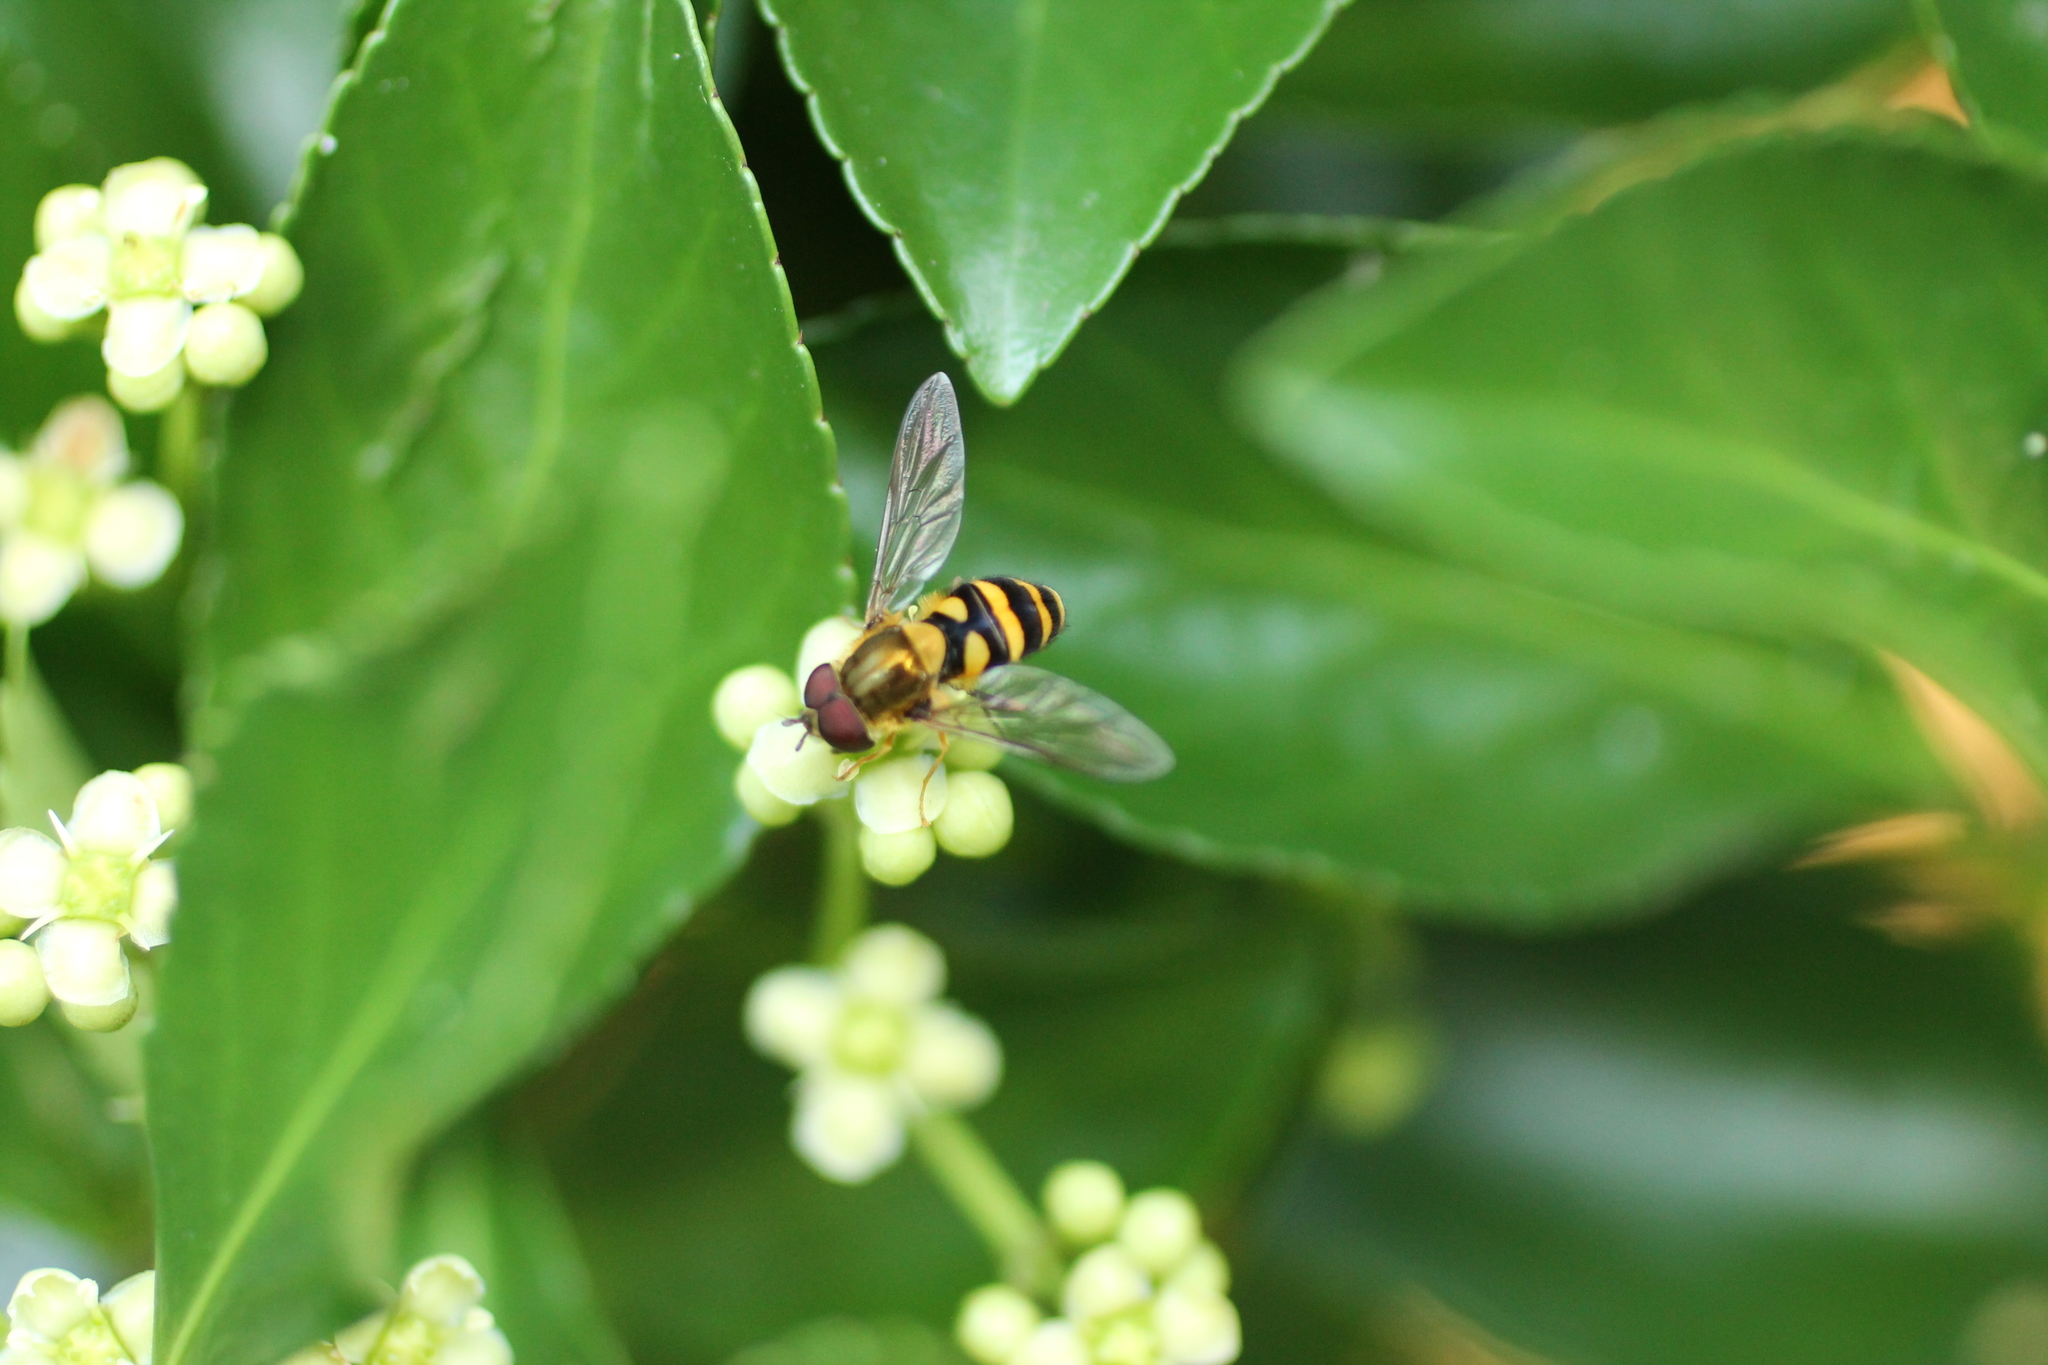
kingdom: Animalia
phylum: Arthropoda
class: Insecta
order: Diptera
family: Syrphidae
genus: Syrphus
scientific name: Syrphus
